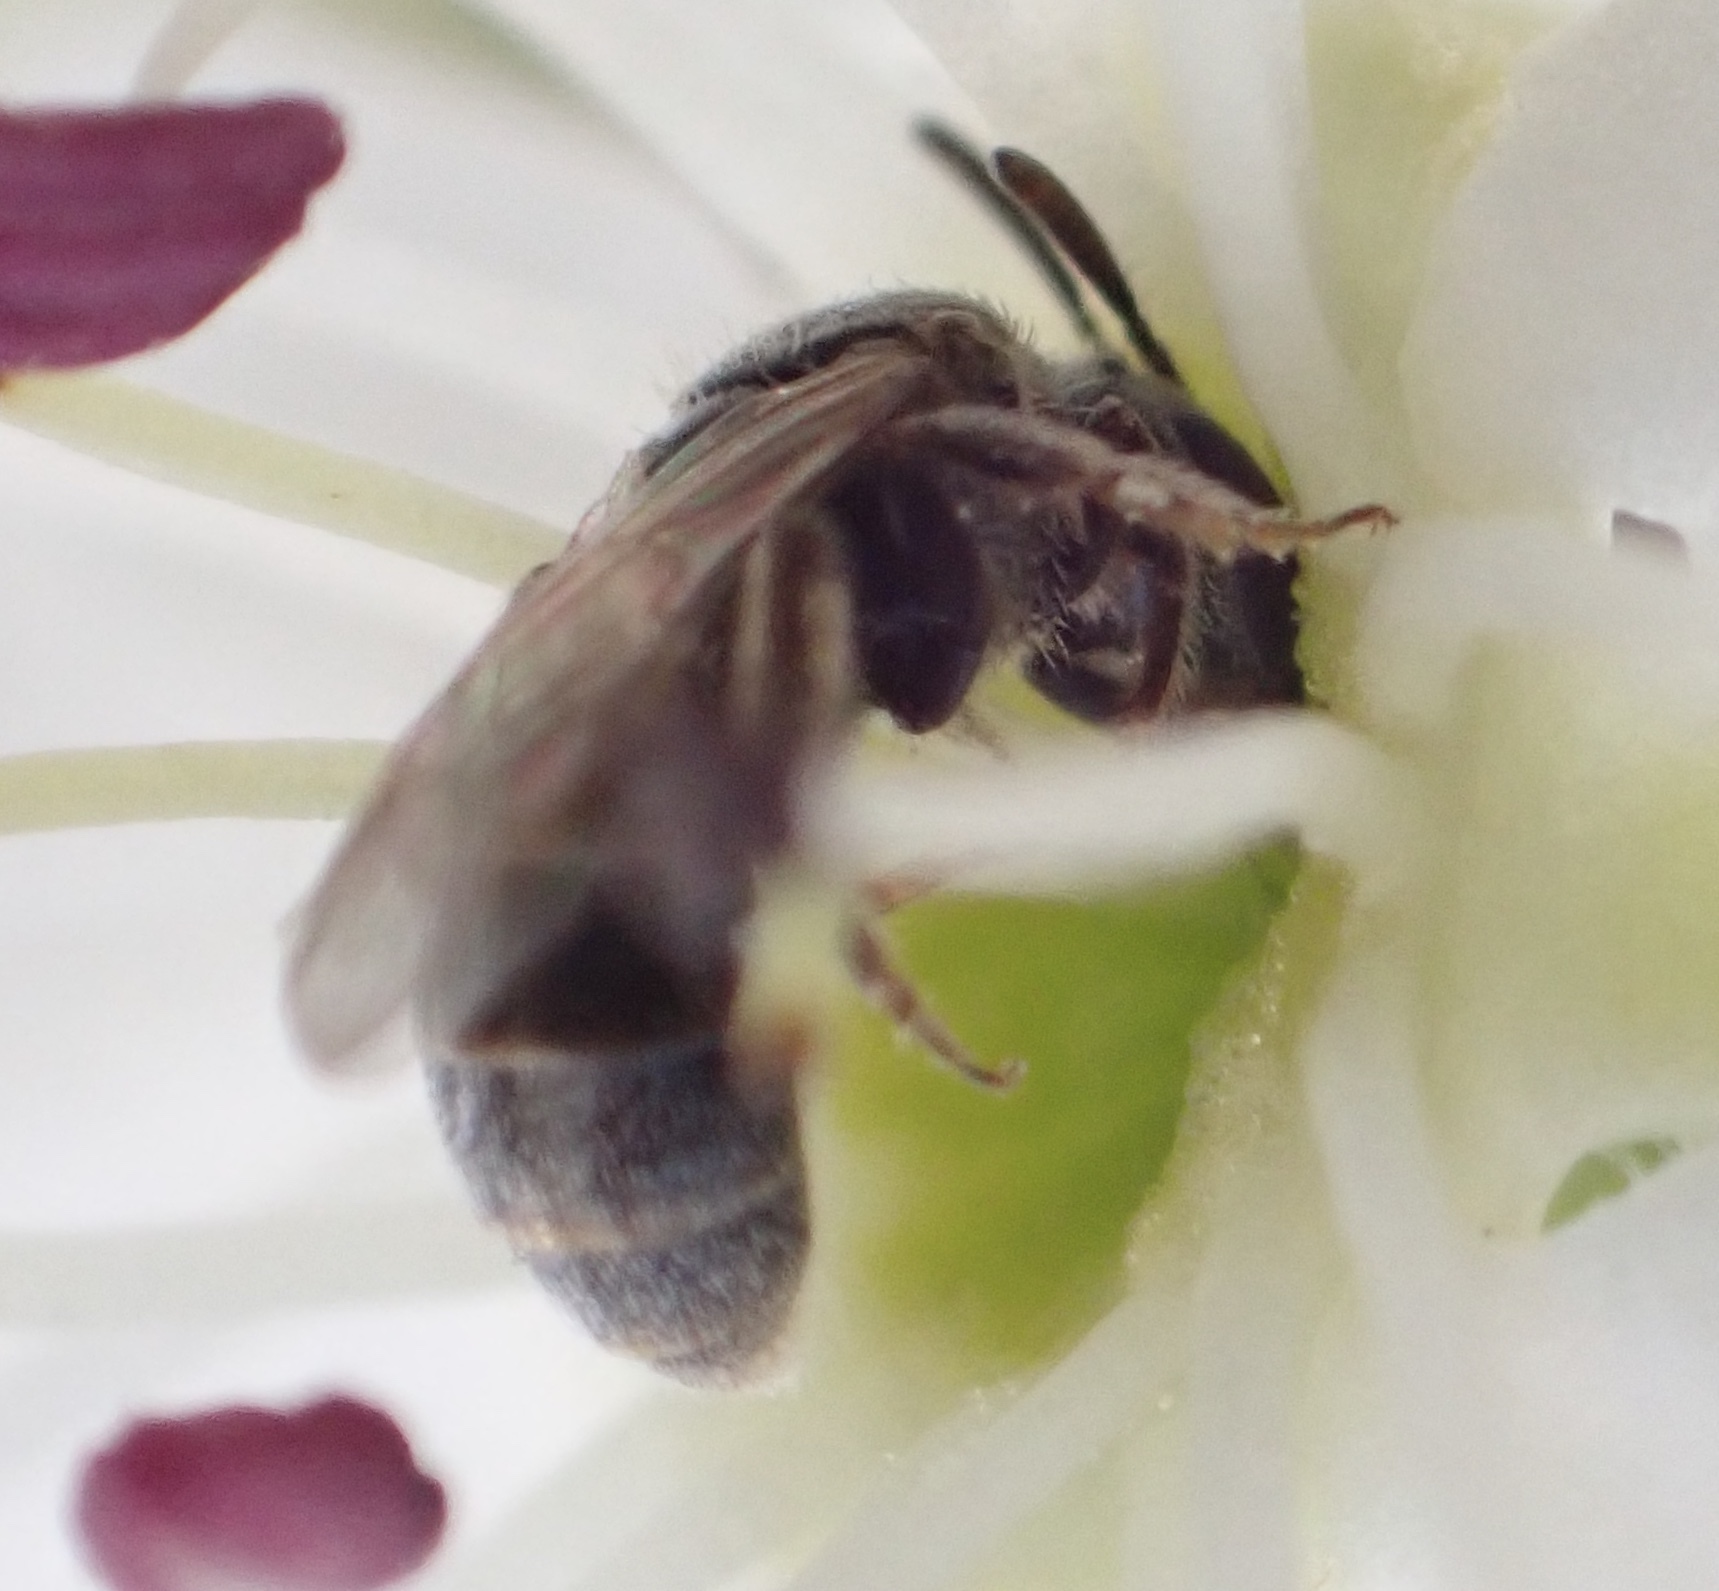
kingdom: Animalia
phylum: Arthropoda
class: Insecta
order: Hymenoptera
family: Halictidae
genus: Lasioglossum
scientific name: Lasioglossum imitatum
